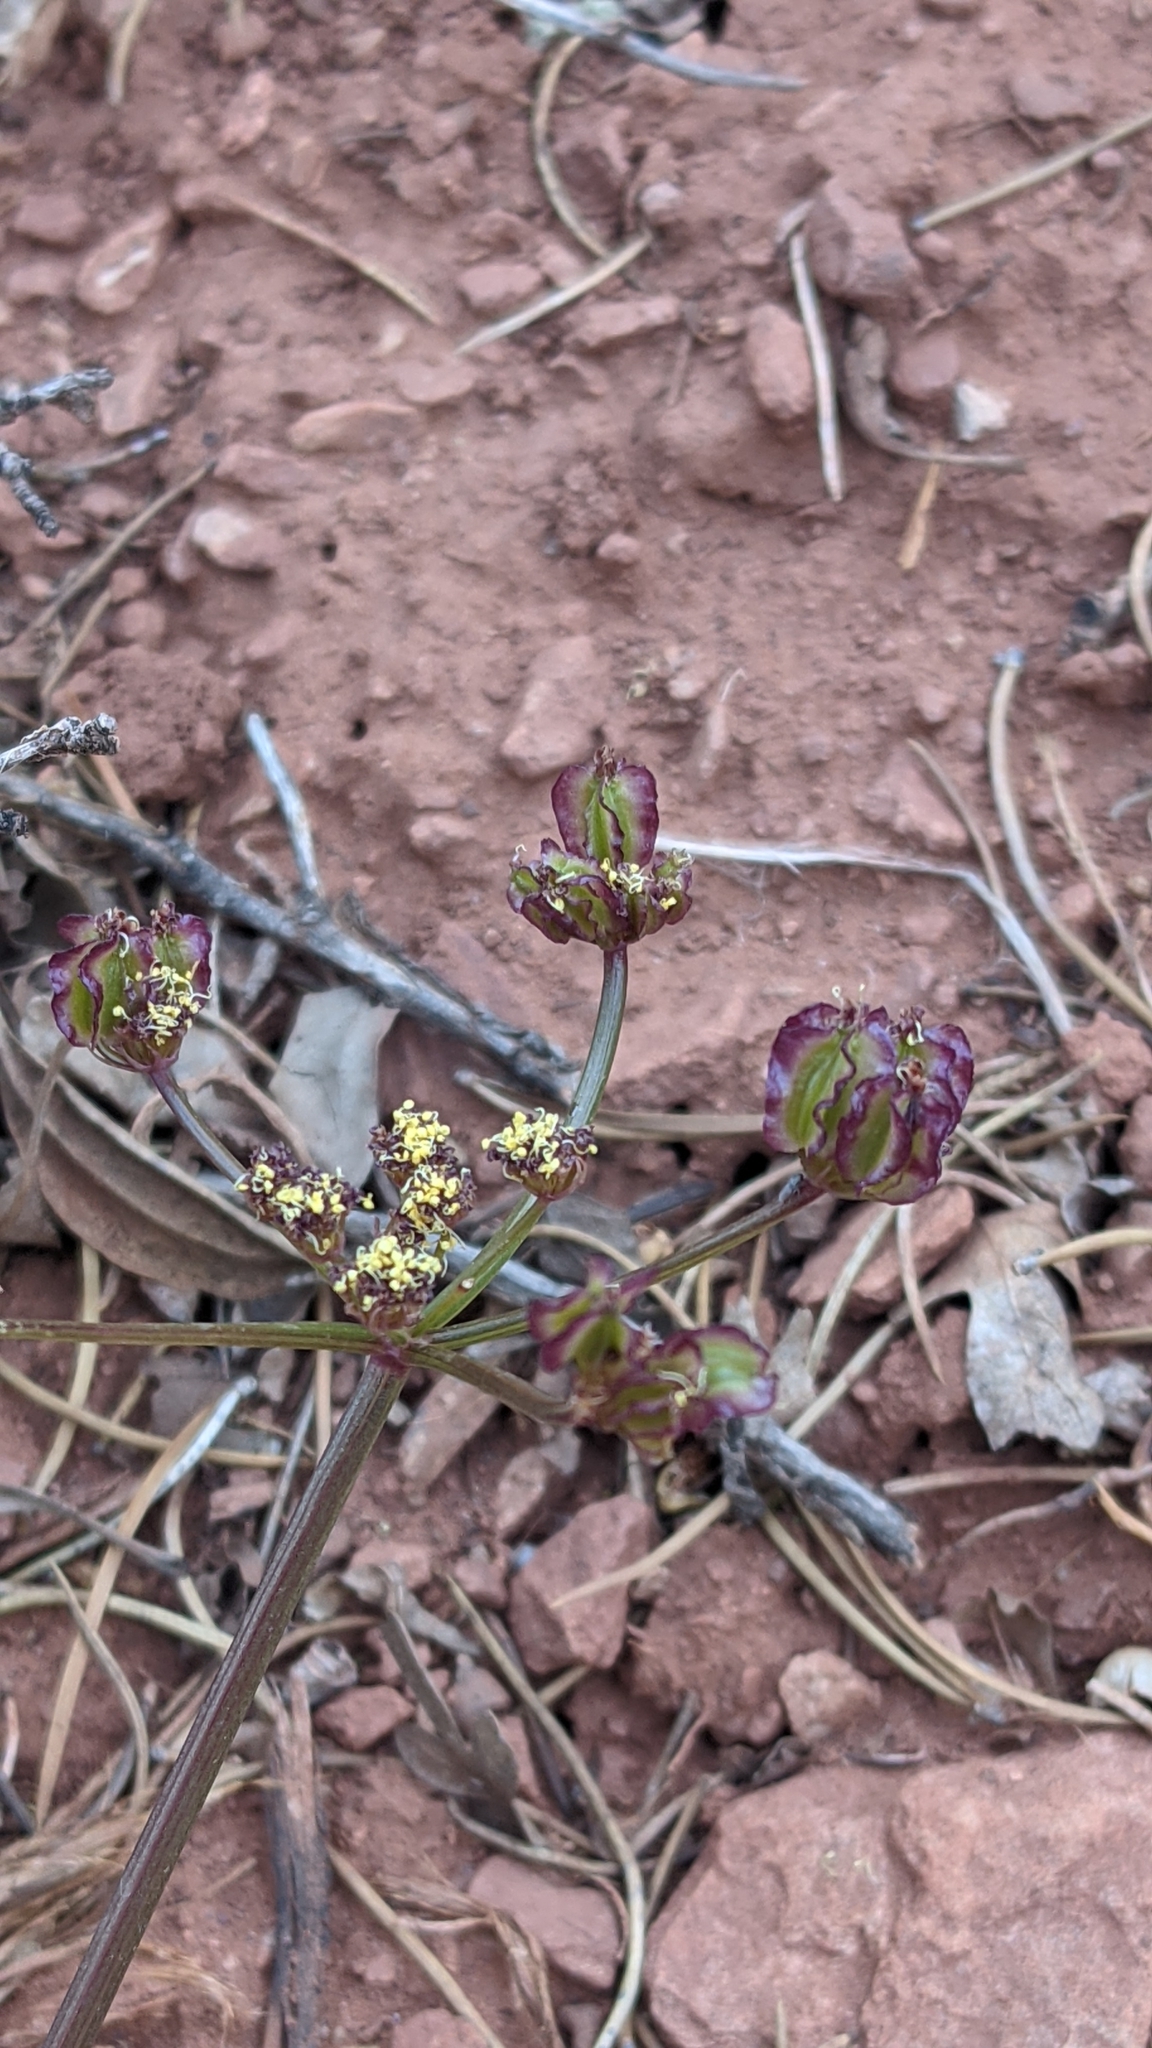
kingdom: Plantae
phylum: Tracheophyta
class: Magnoliopsida
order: Apiales
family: Apiaceae
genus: Aulospermum
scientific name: Aulospermum purpureum
